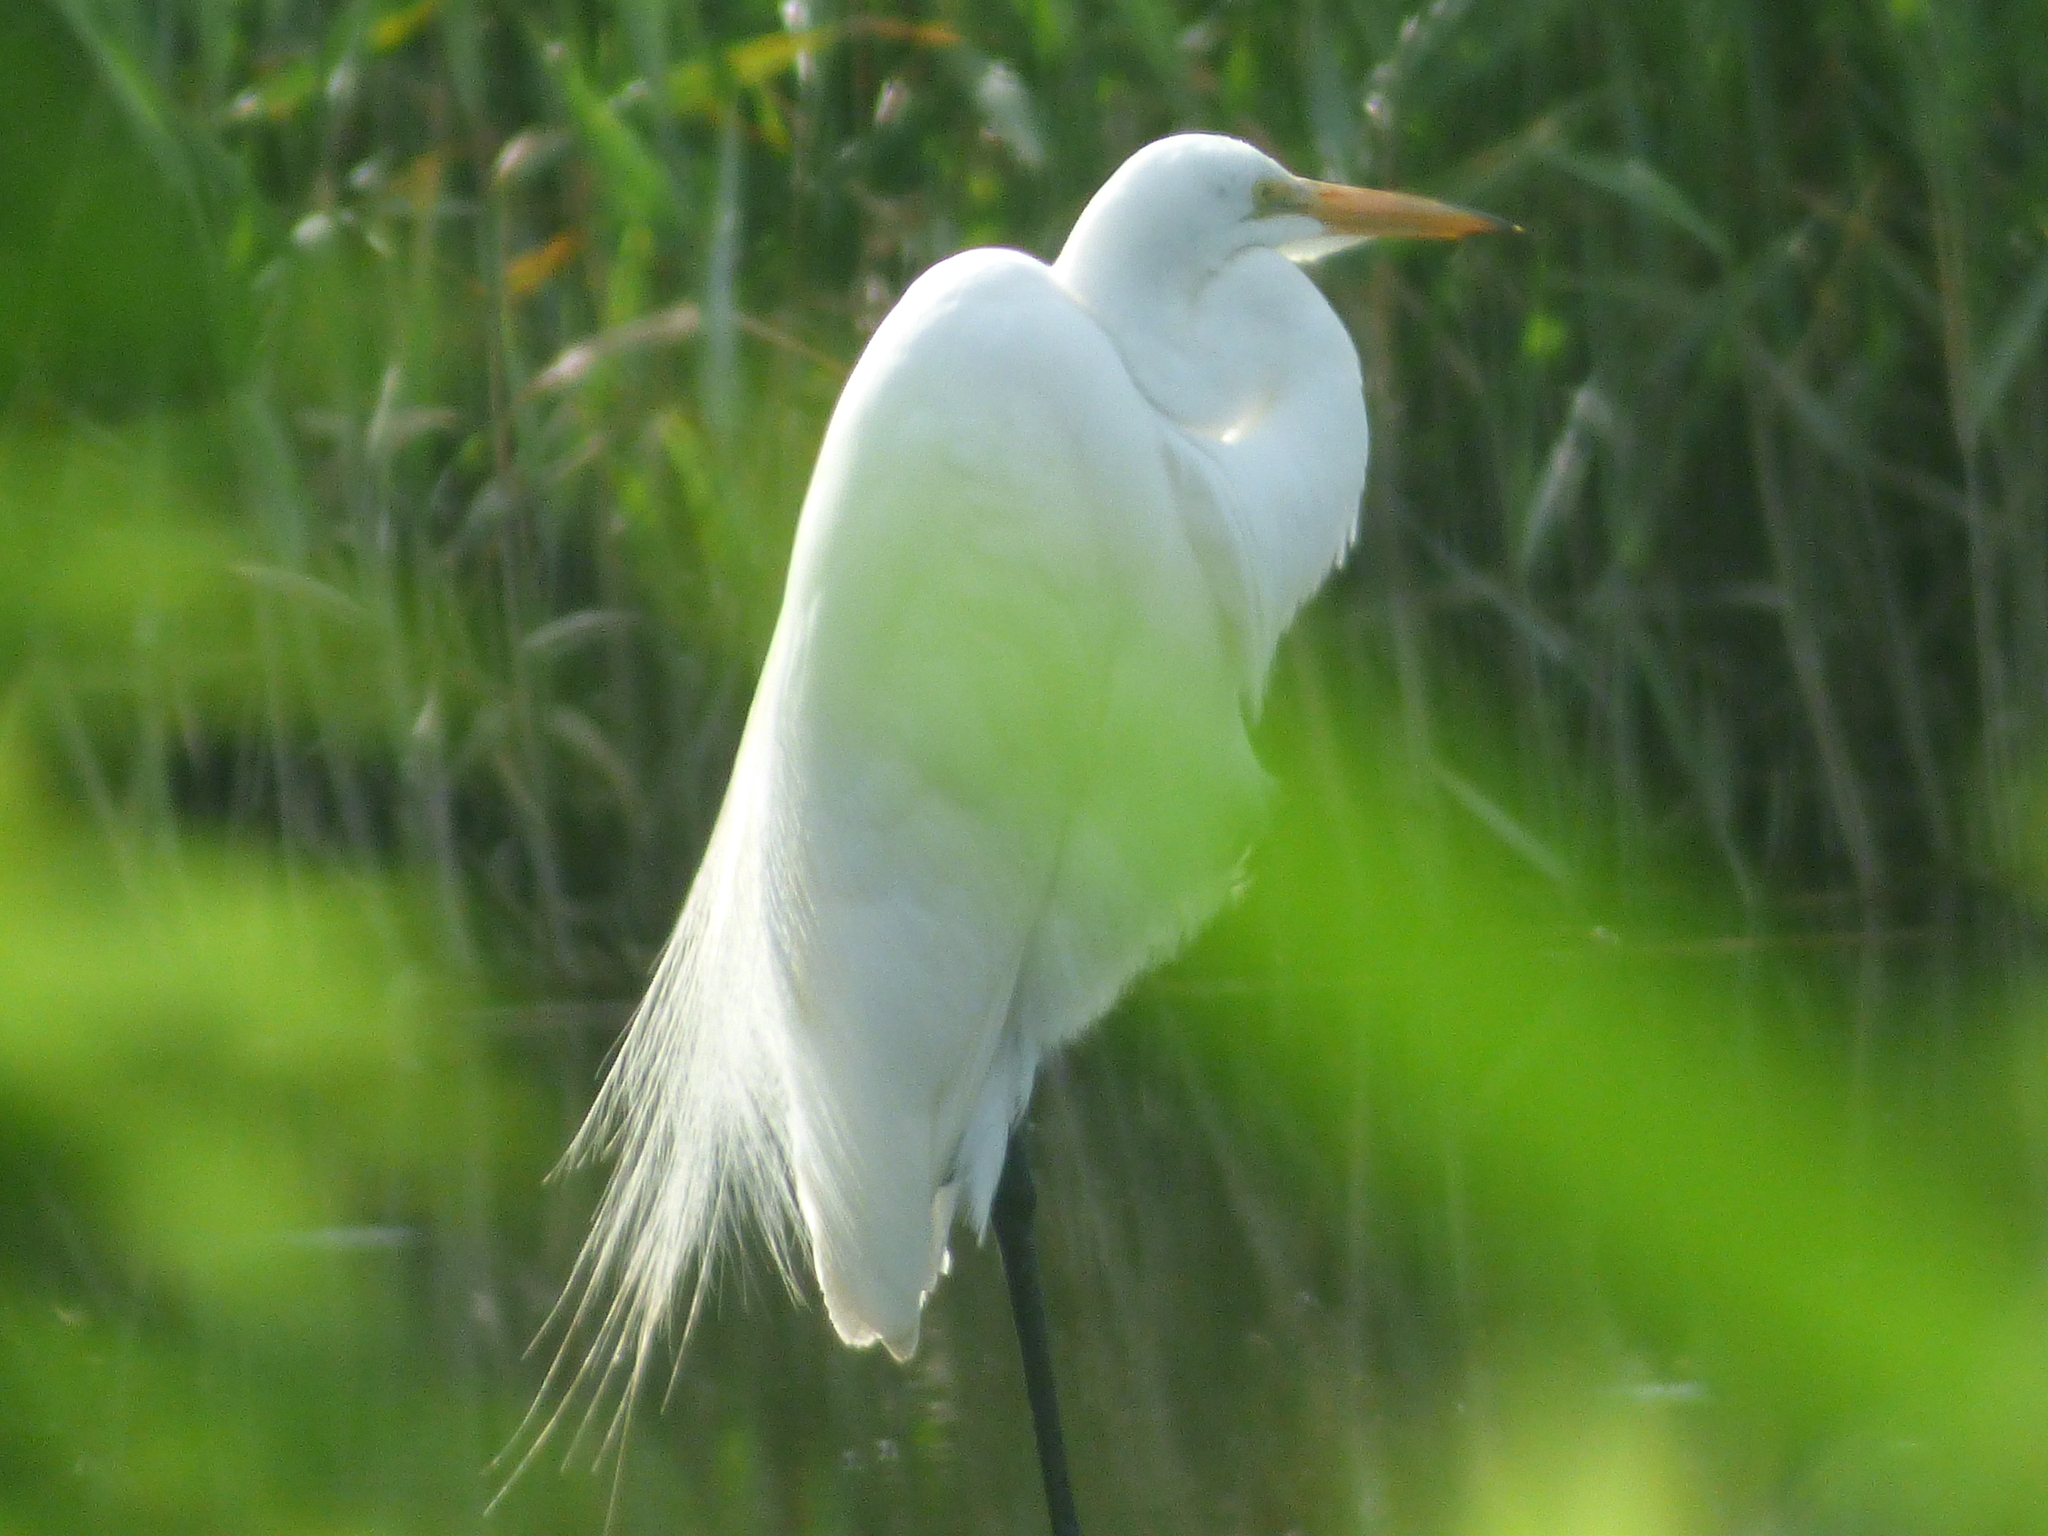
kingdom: Animalia
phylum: Chordata
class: Aves
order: Pelecaniformes
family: Ardeidae
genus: Ardea
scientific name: Ardea alba
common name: Great egret
